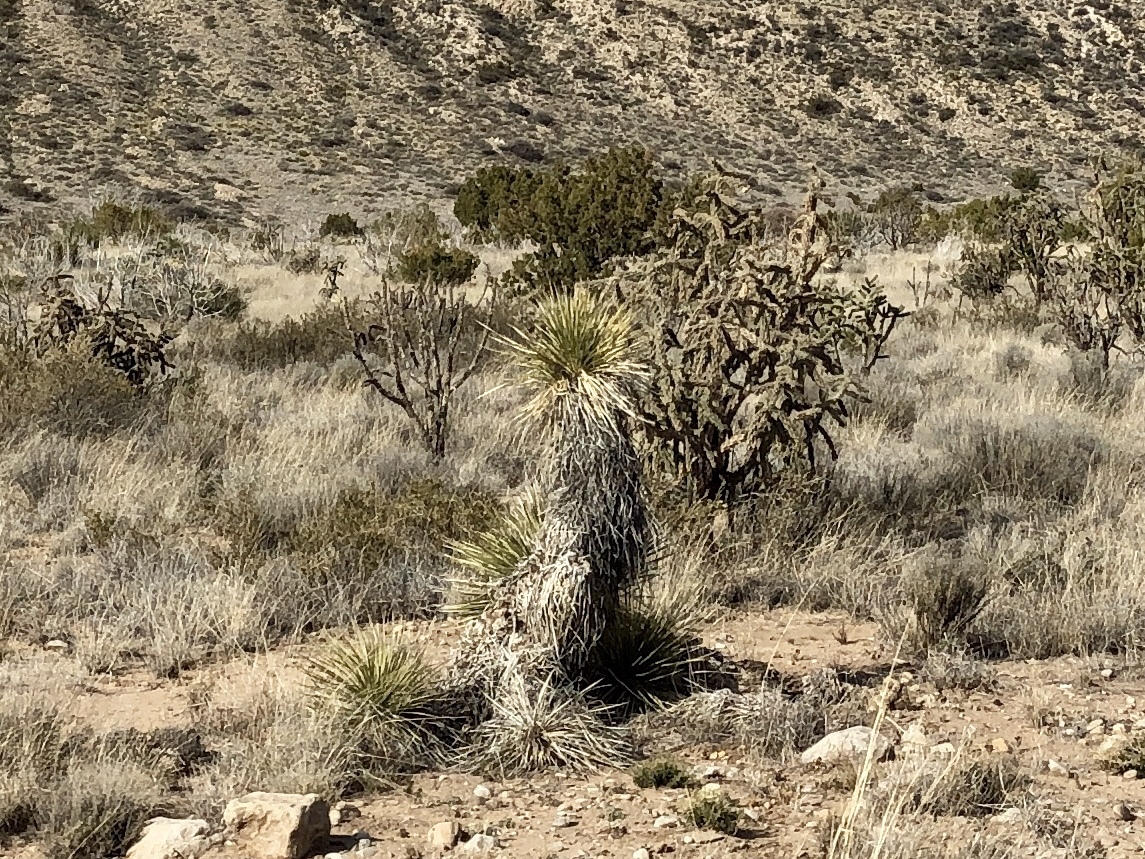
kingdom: Plantae
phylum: Tracheophyta
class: Liliopsida
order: Asparagales
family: Asparagaceae
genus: Yucca
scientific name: Yucca elata
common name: Palmella
